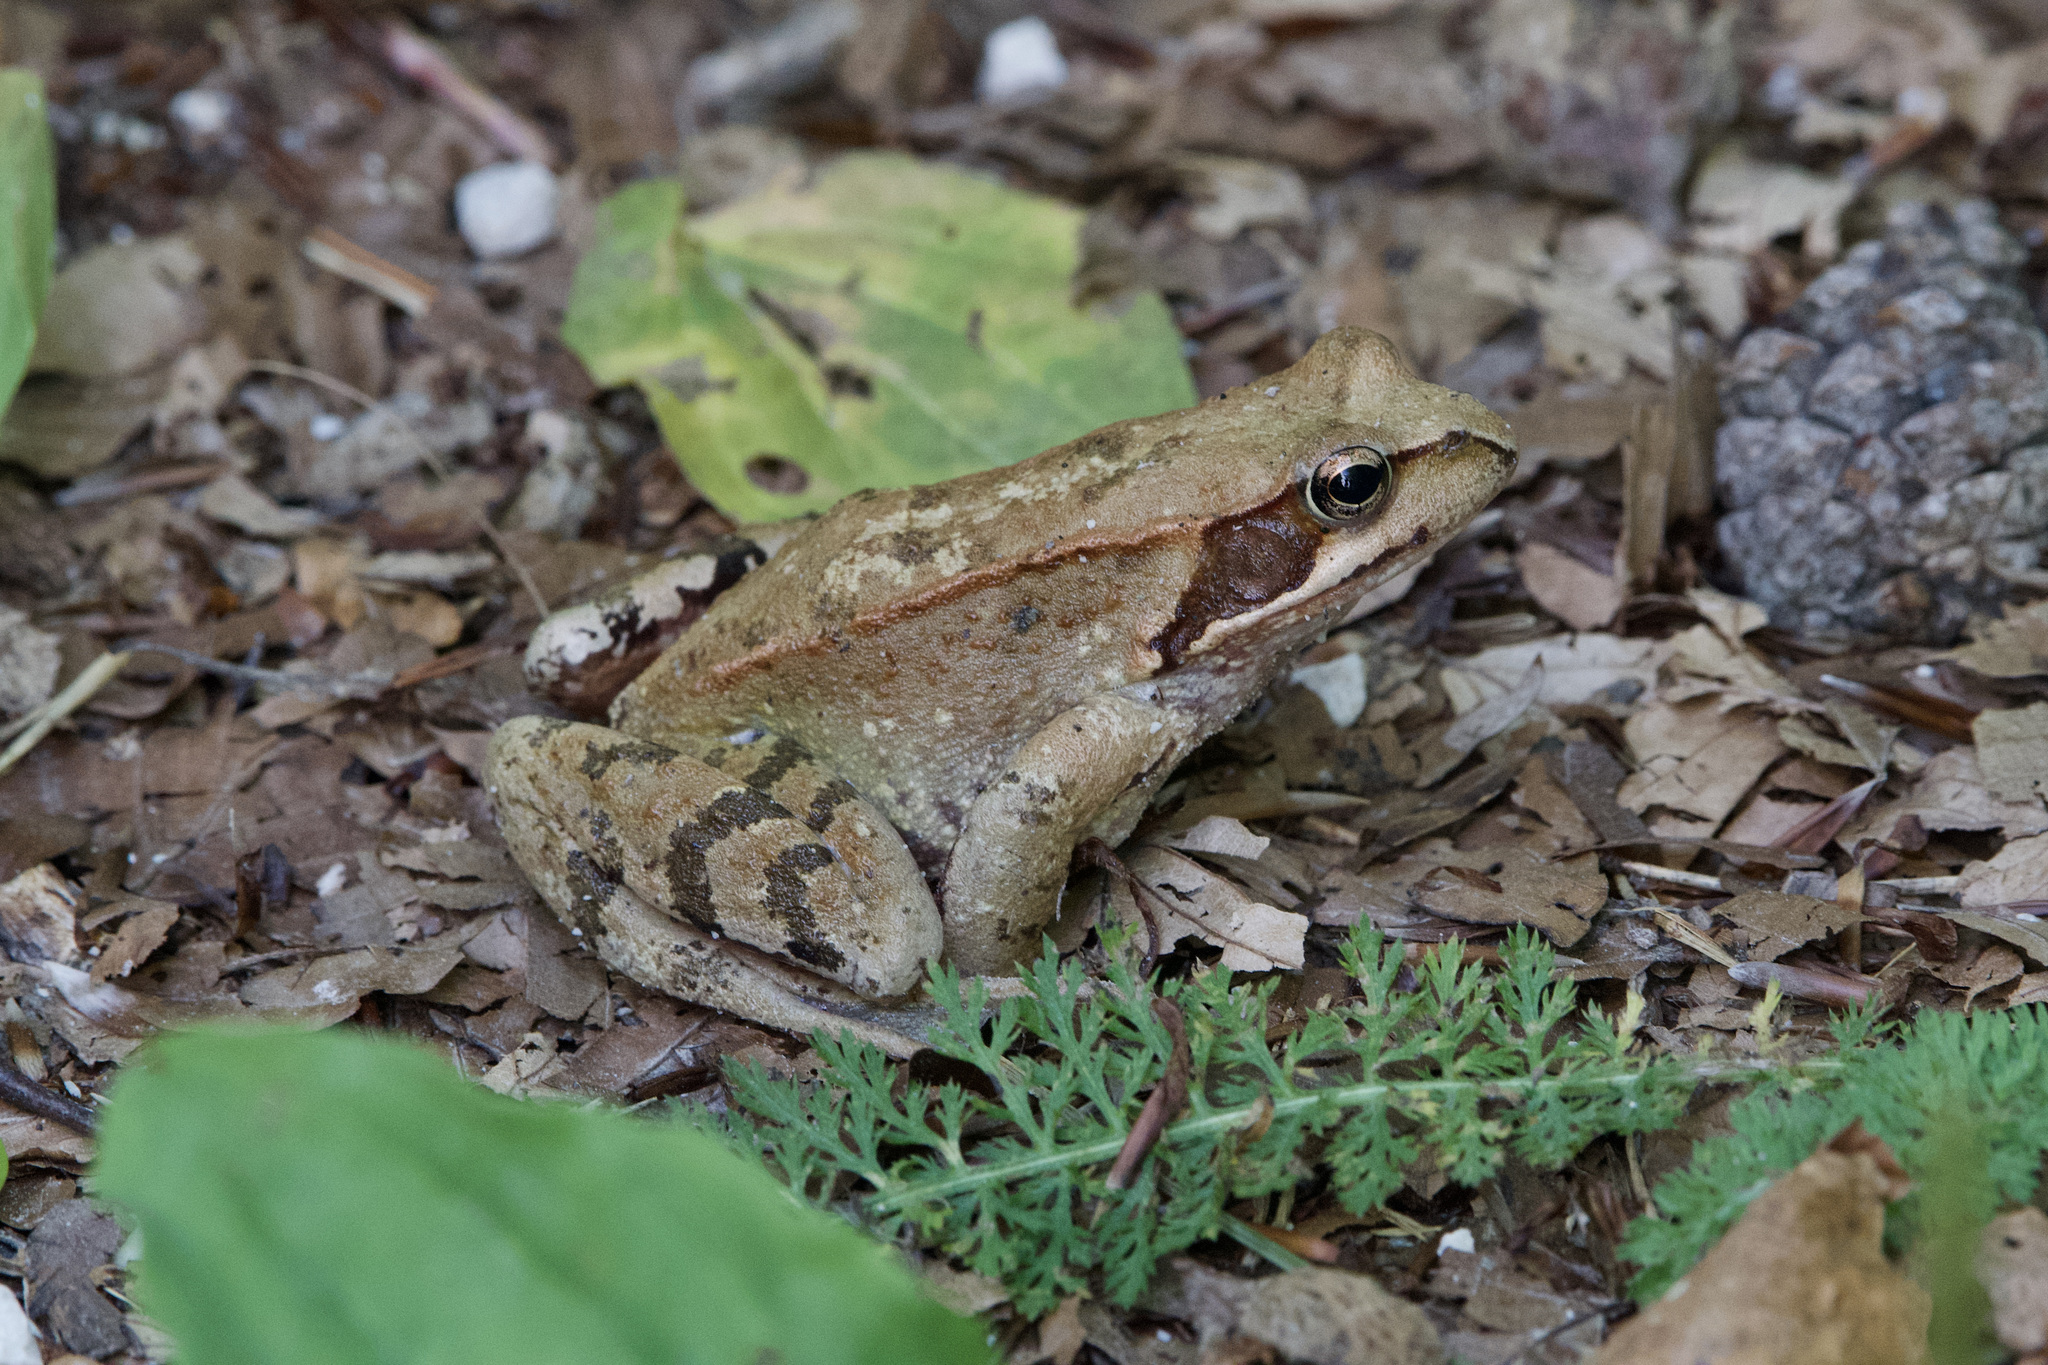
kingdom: Animalia
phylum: Chordata
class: Amphibia
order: Anura
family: Ranidae
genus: Rana
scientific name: Rana temporaria
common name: Common frog
